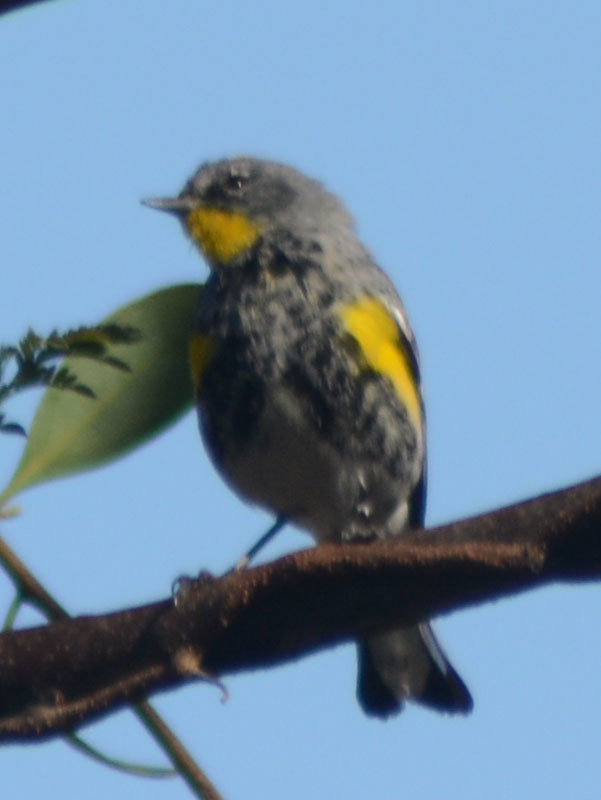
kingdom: Animalia
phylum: Chordata
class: Aves
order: Passeriformes
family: Parulidae
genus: Setophaga
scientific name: Setophaga auduboni
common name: Audubon's warbler
